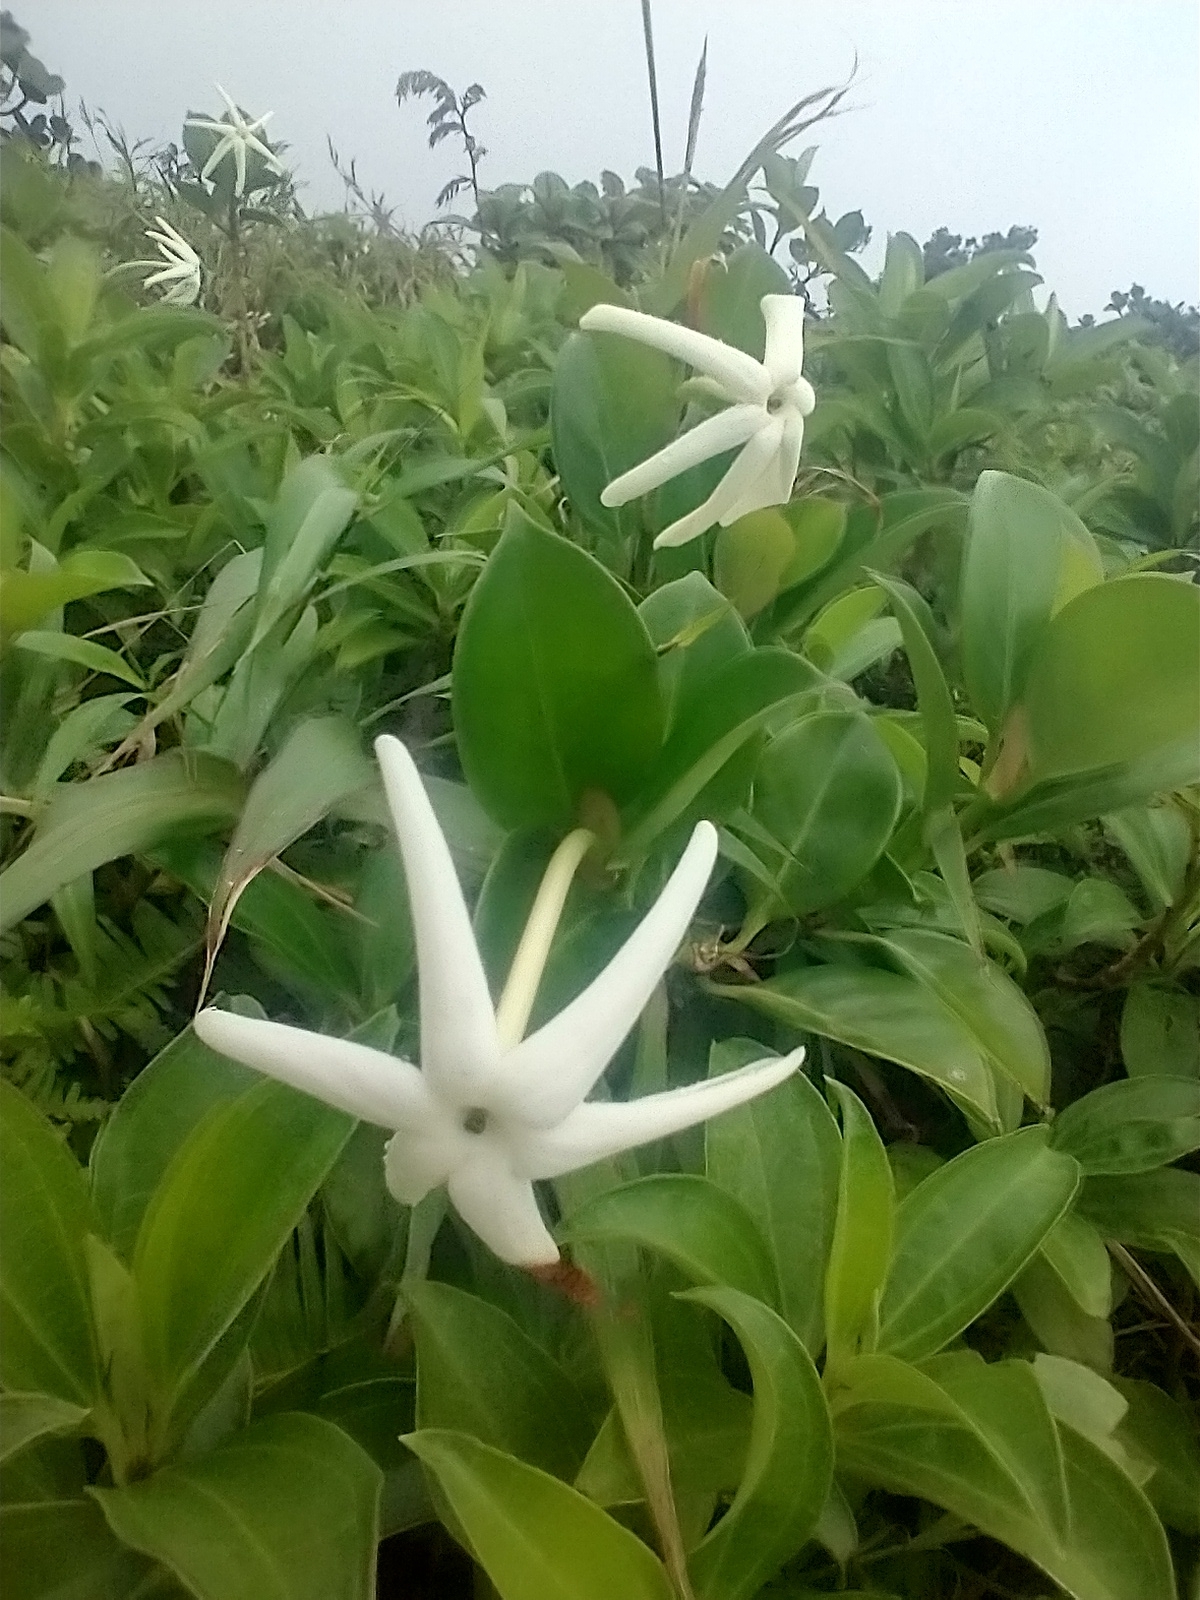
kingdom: Plantae
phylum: Tracheophyta
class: Magnoliopsida
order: Gentianales
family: Rubiaceae
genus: Hillia
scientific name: Hillia parasitica
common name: Morning star
